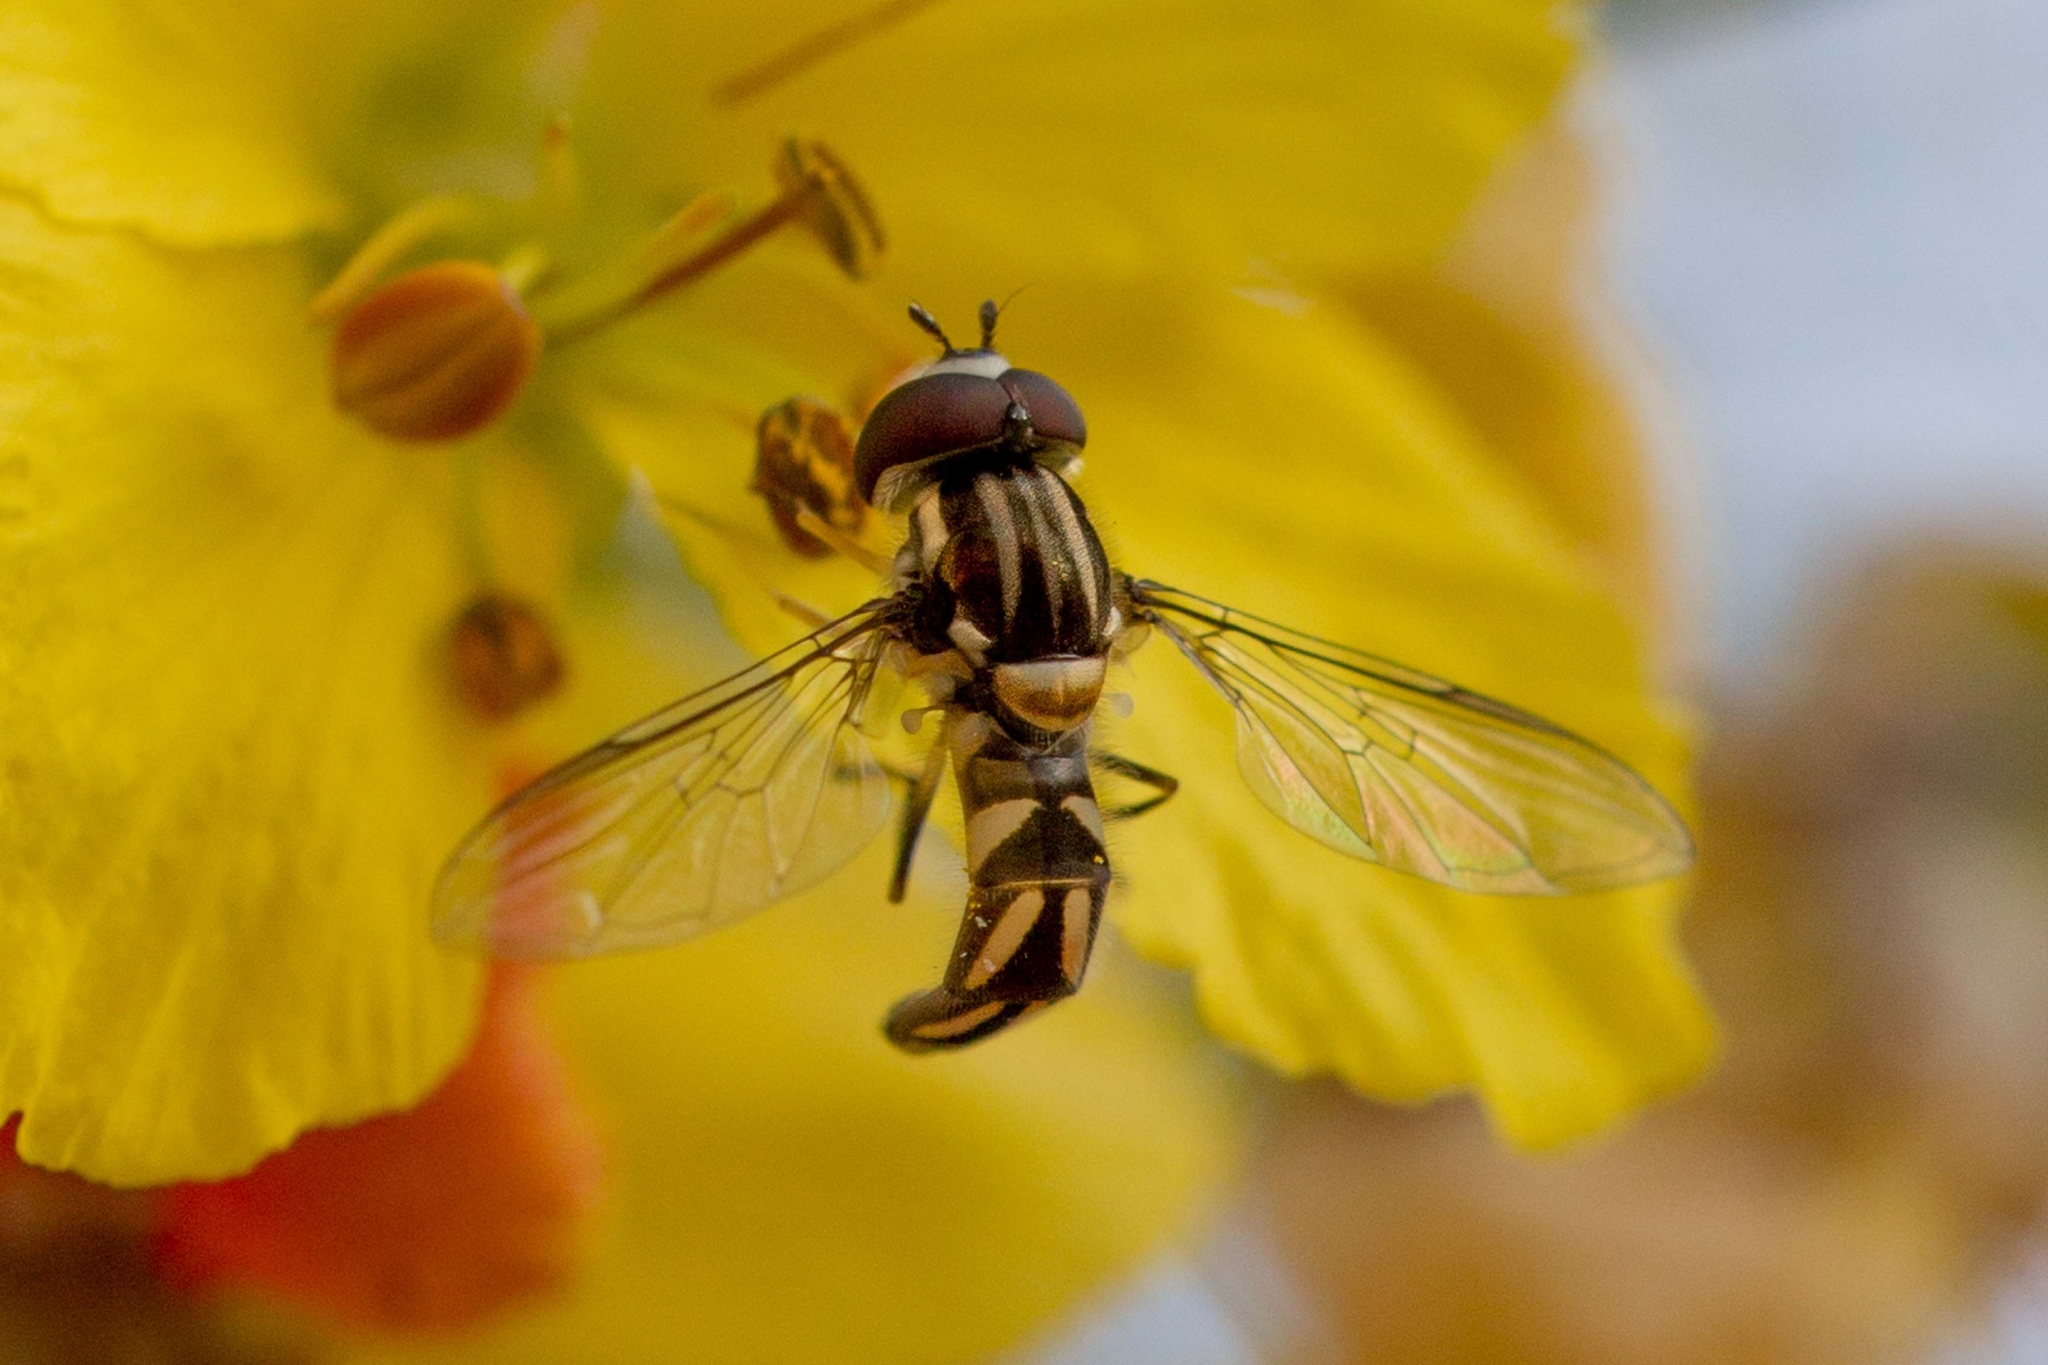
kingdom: Animalia
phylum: Arthropoda
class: Insecta
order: Diptera
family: Syrphidae
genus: Allograpta
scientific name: Allograpta piurana
